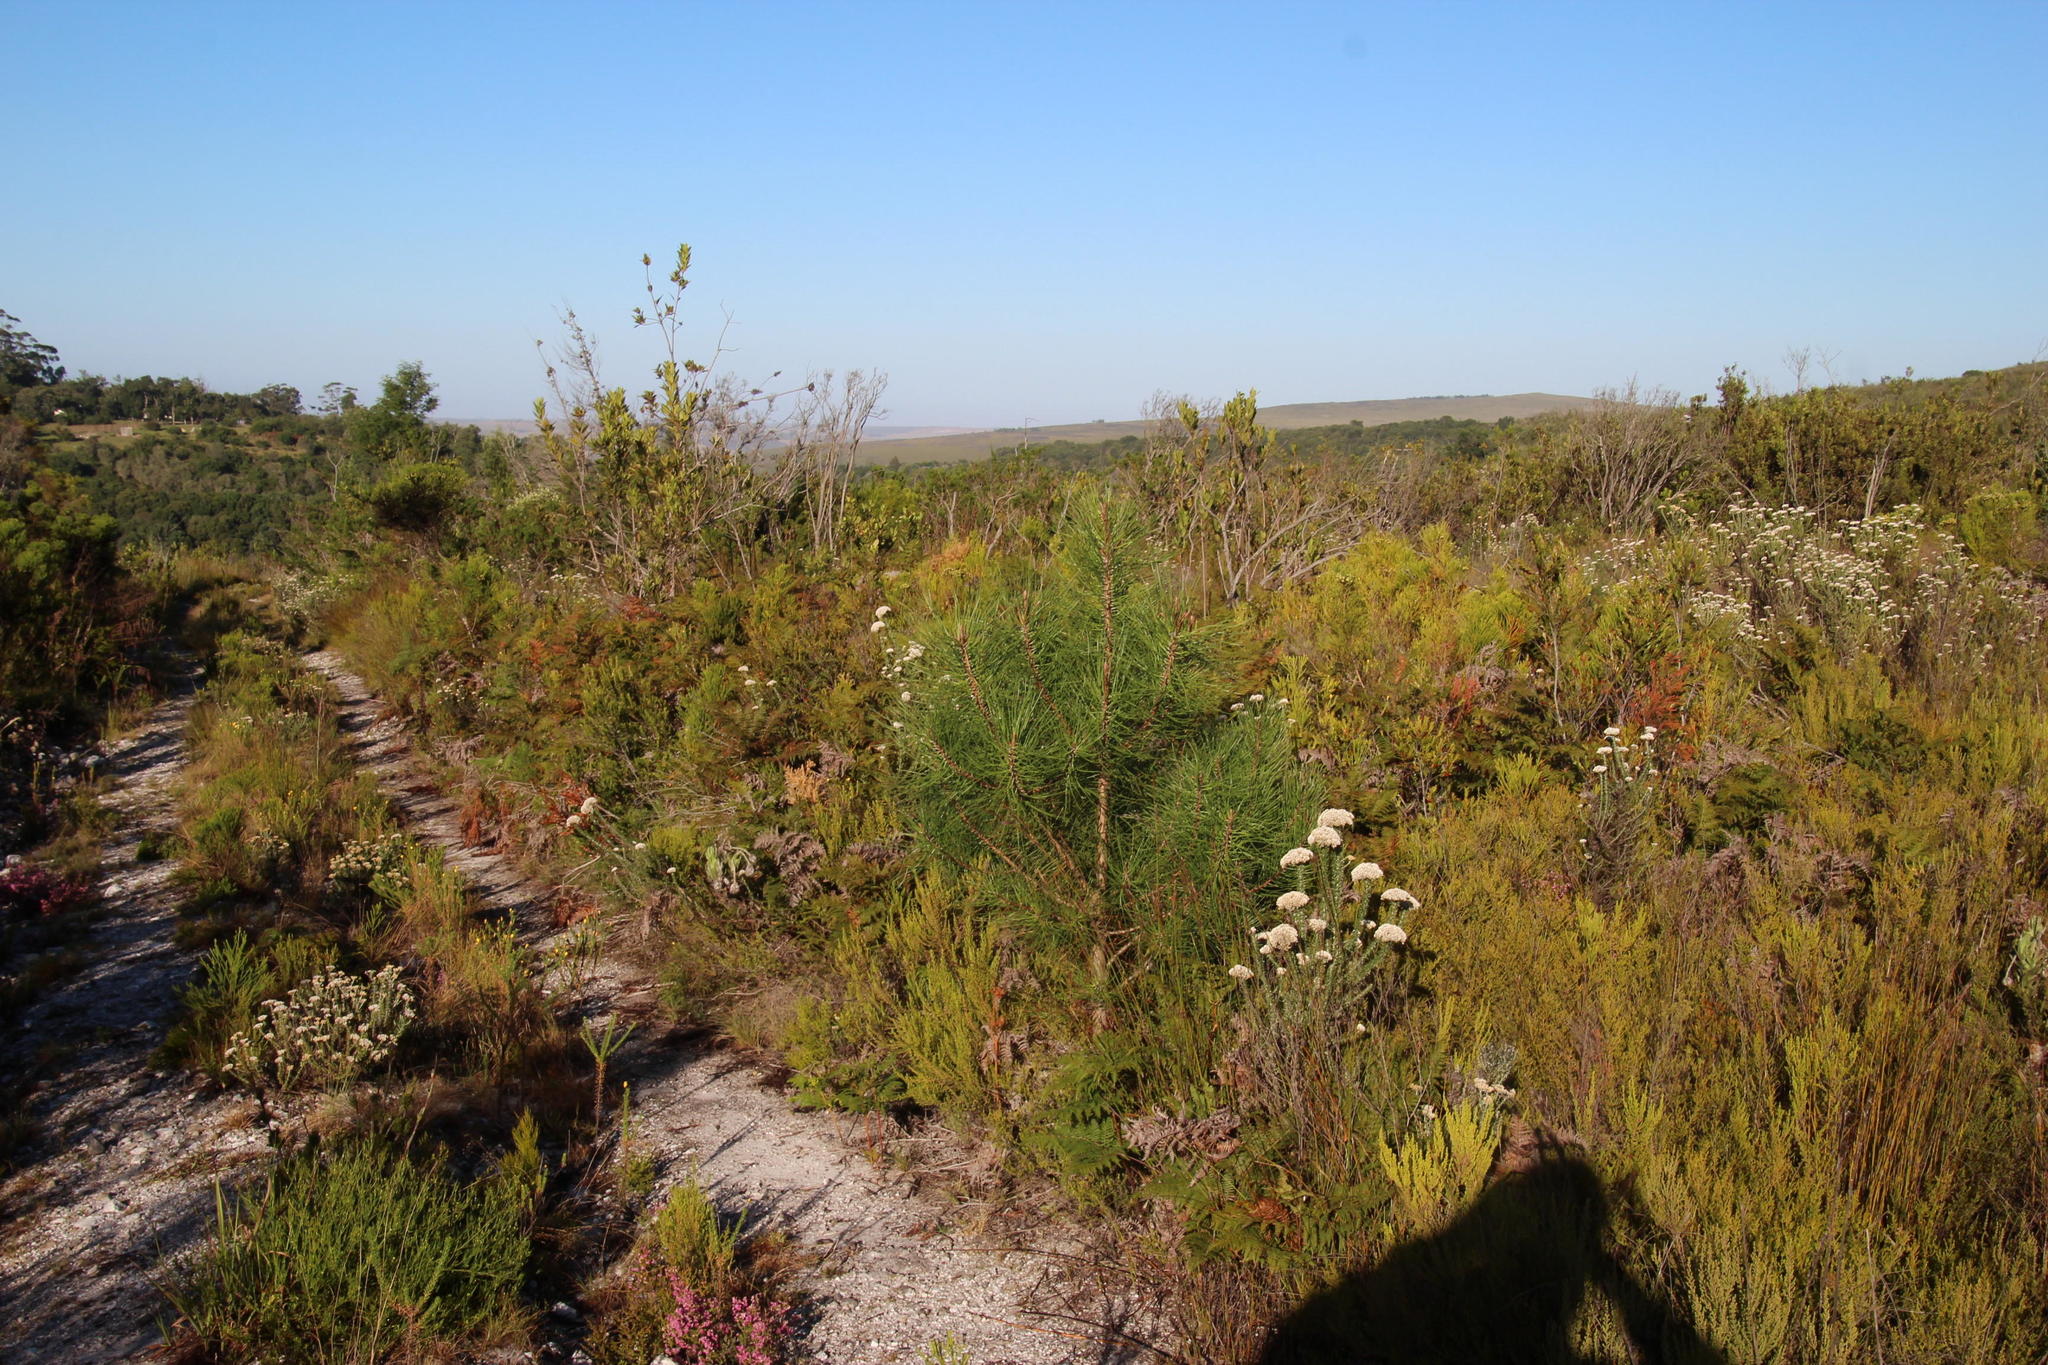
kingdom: Plantae
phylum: Tracheophyta
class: Pinopsida
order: Pinales
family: Pinaceae
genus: Pinus
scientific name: Pinus pinaster
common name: Maritime pine
